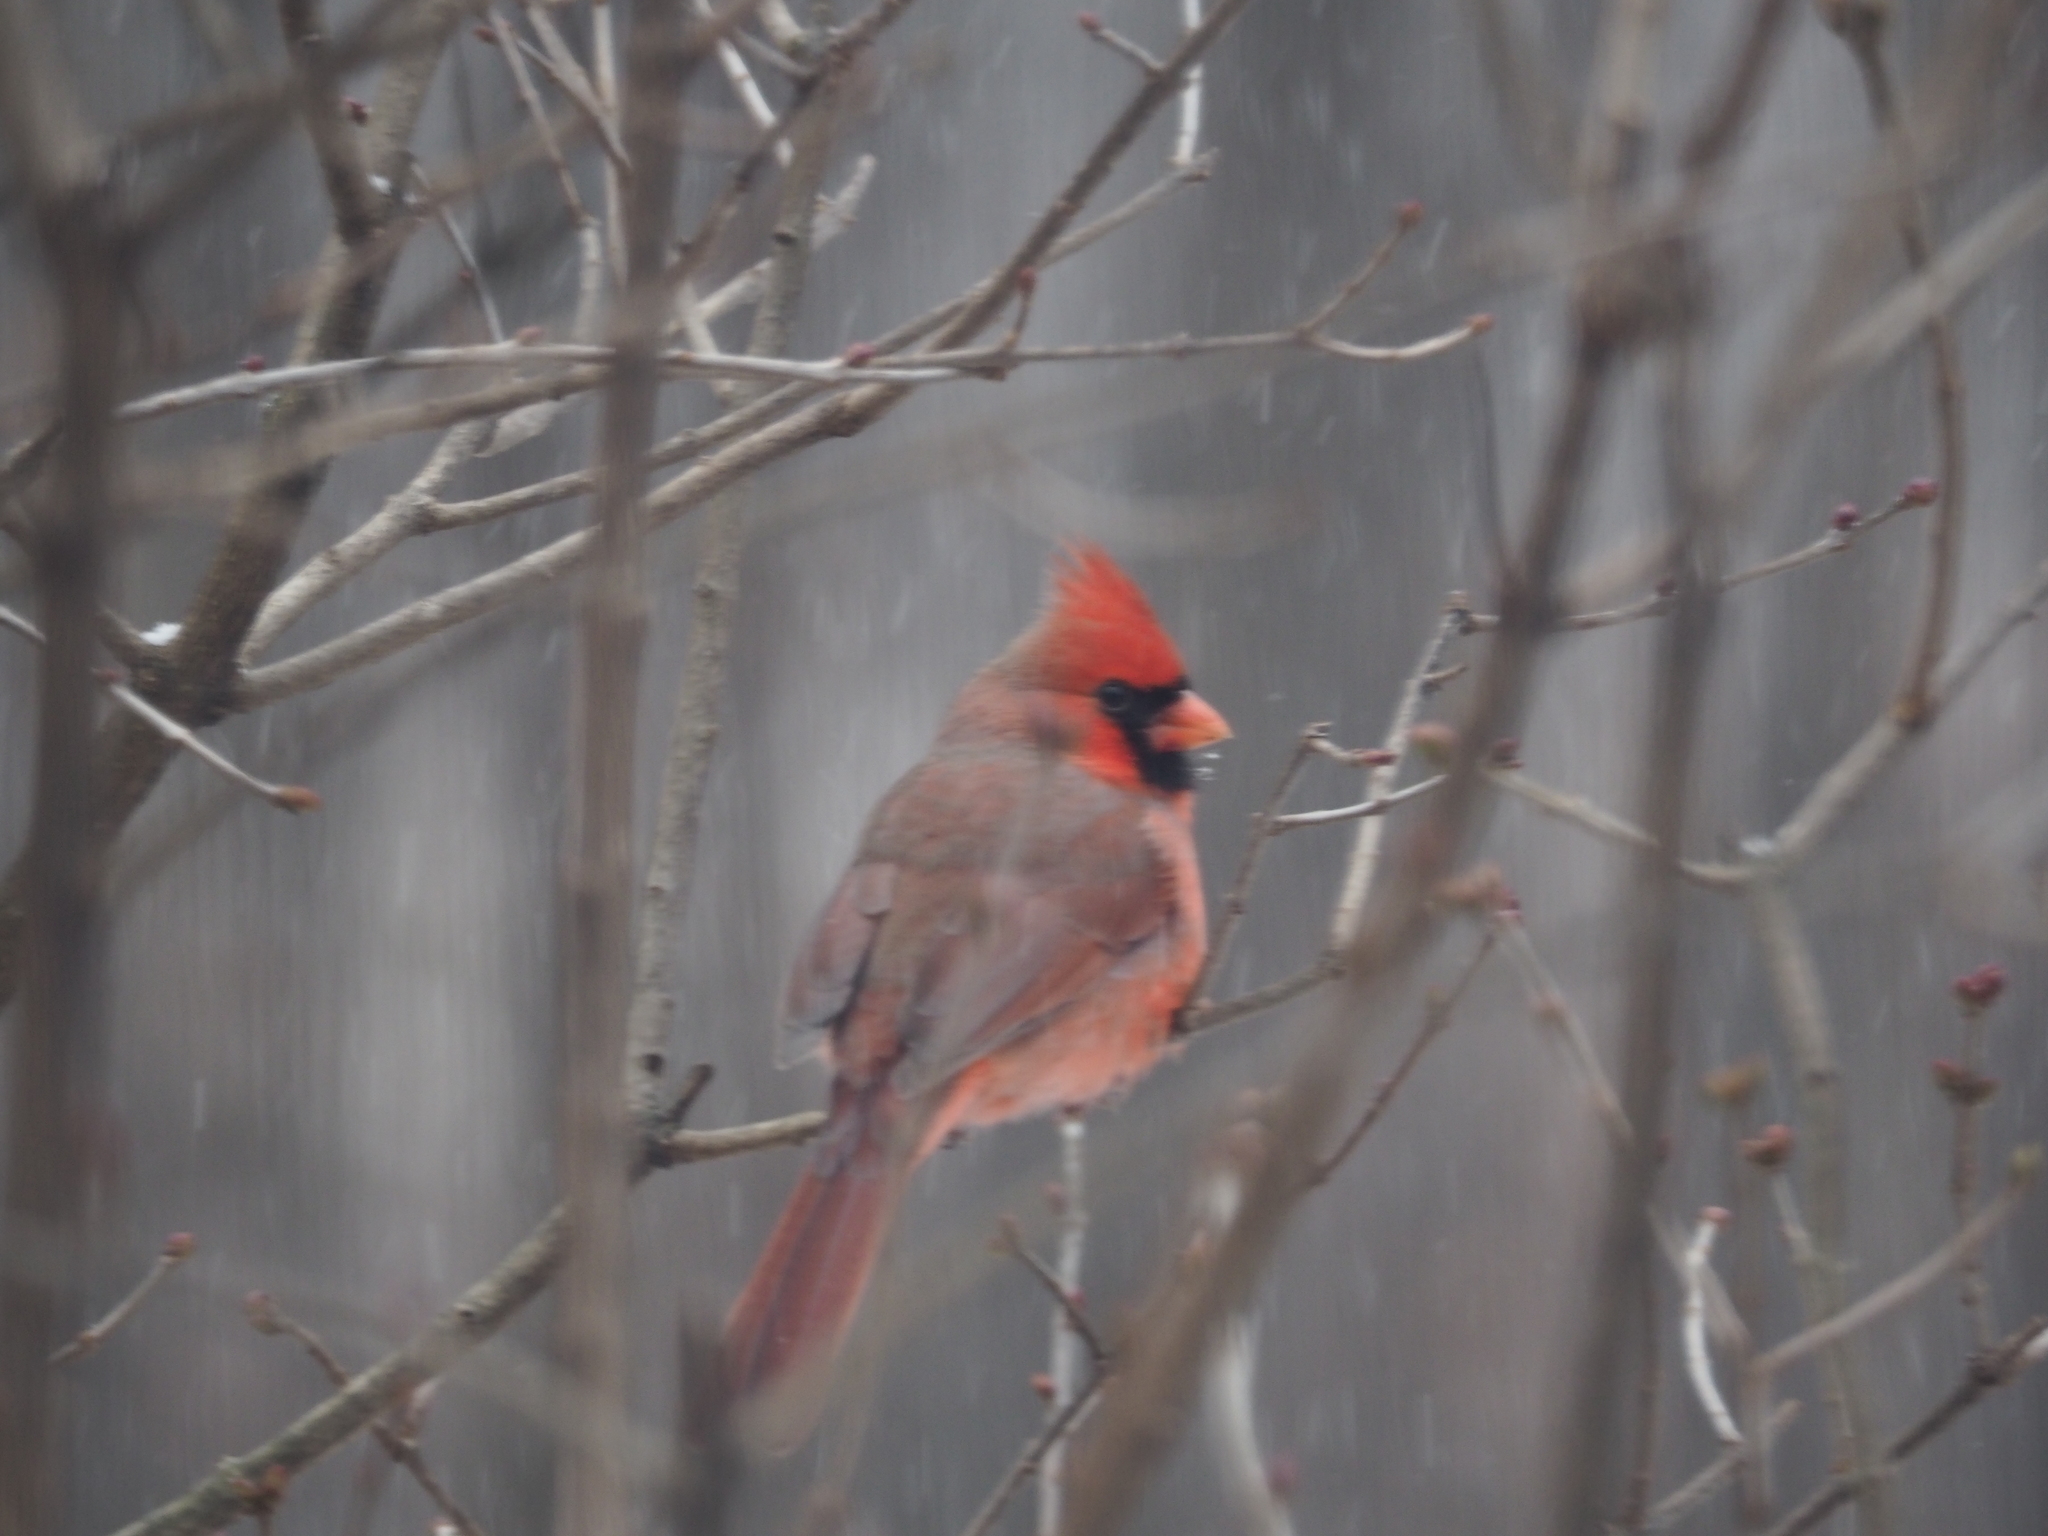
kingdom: Animalia
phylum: Chordata
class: Aves
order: Passeriformes
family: Cardinalidae
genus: Cardinalis
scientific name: Cardinalis cardinalis
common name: Northern cardinal
